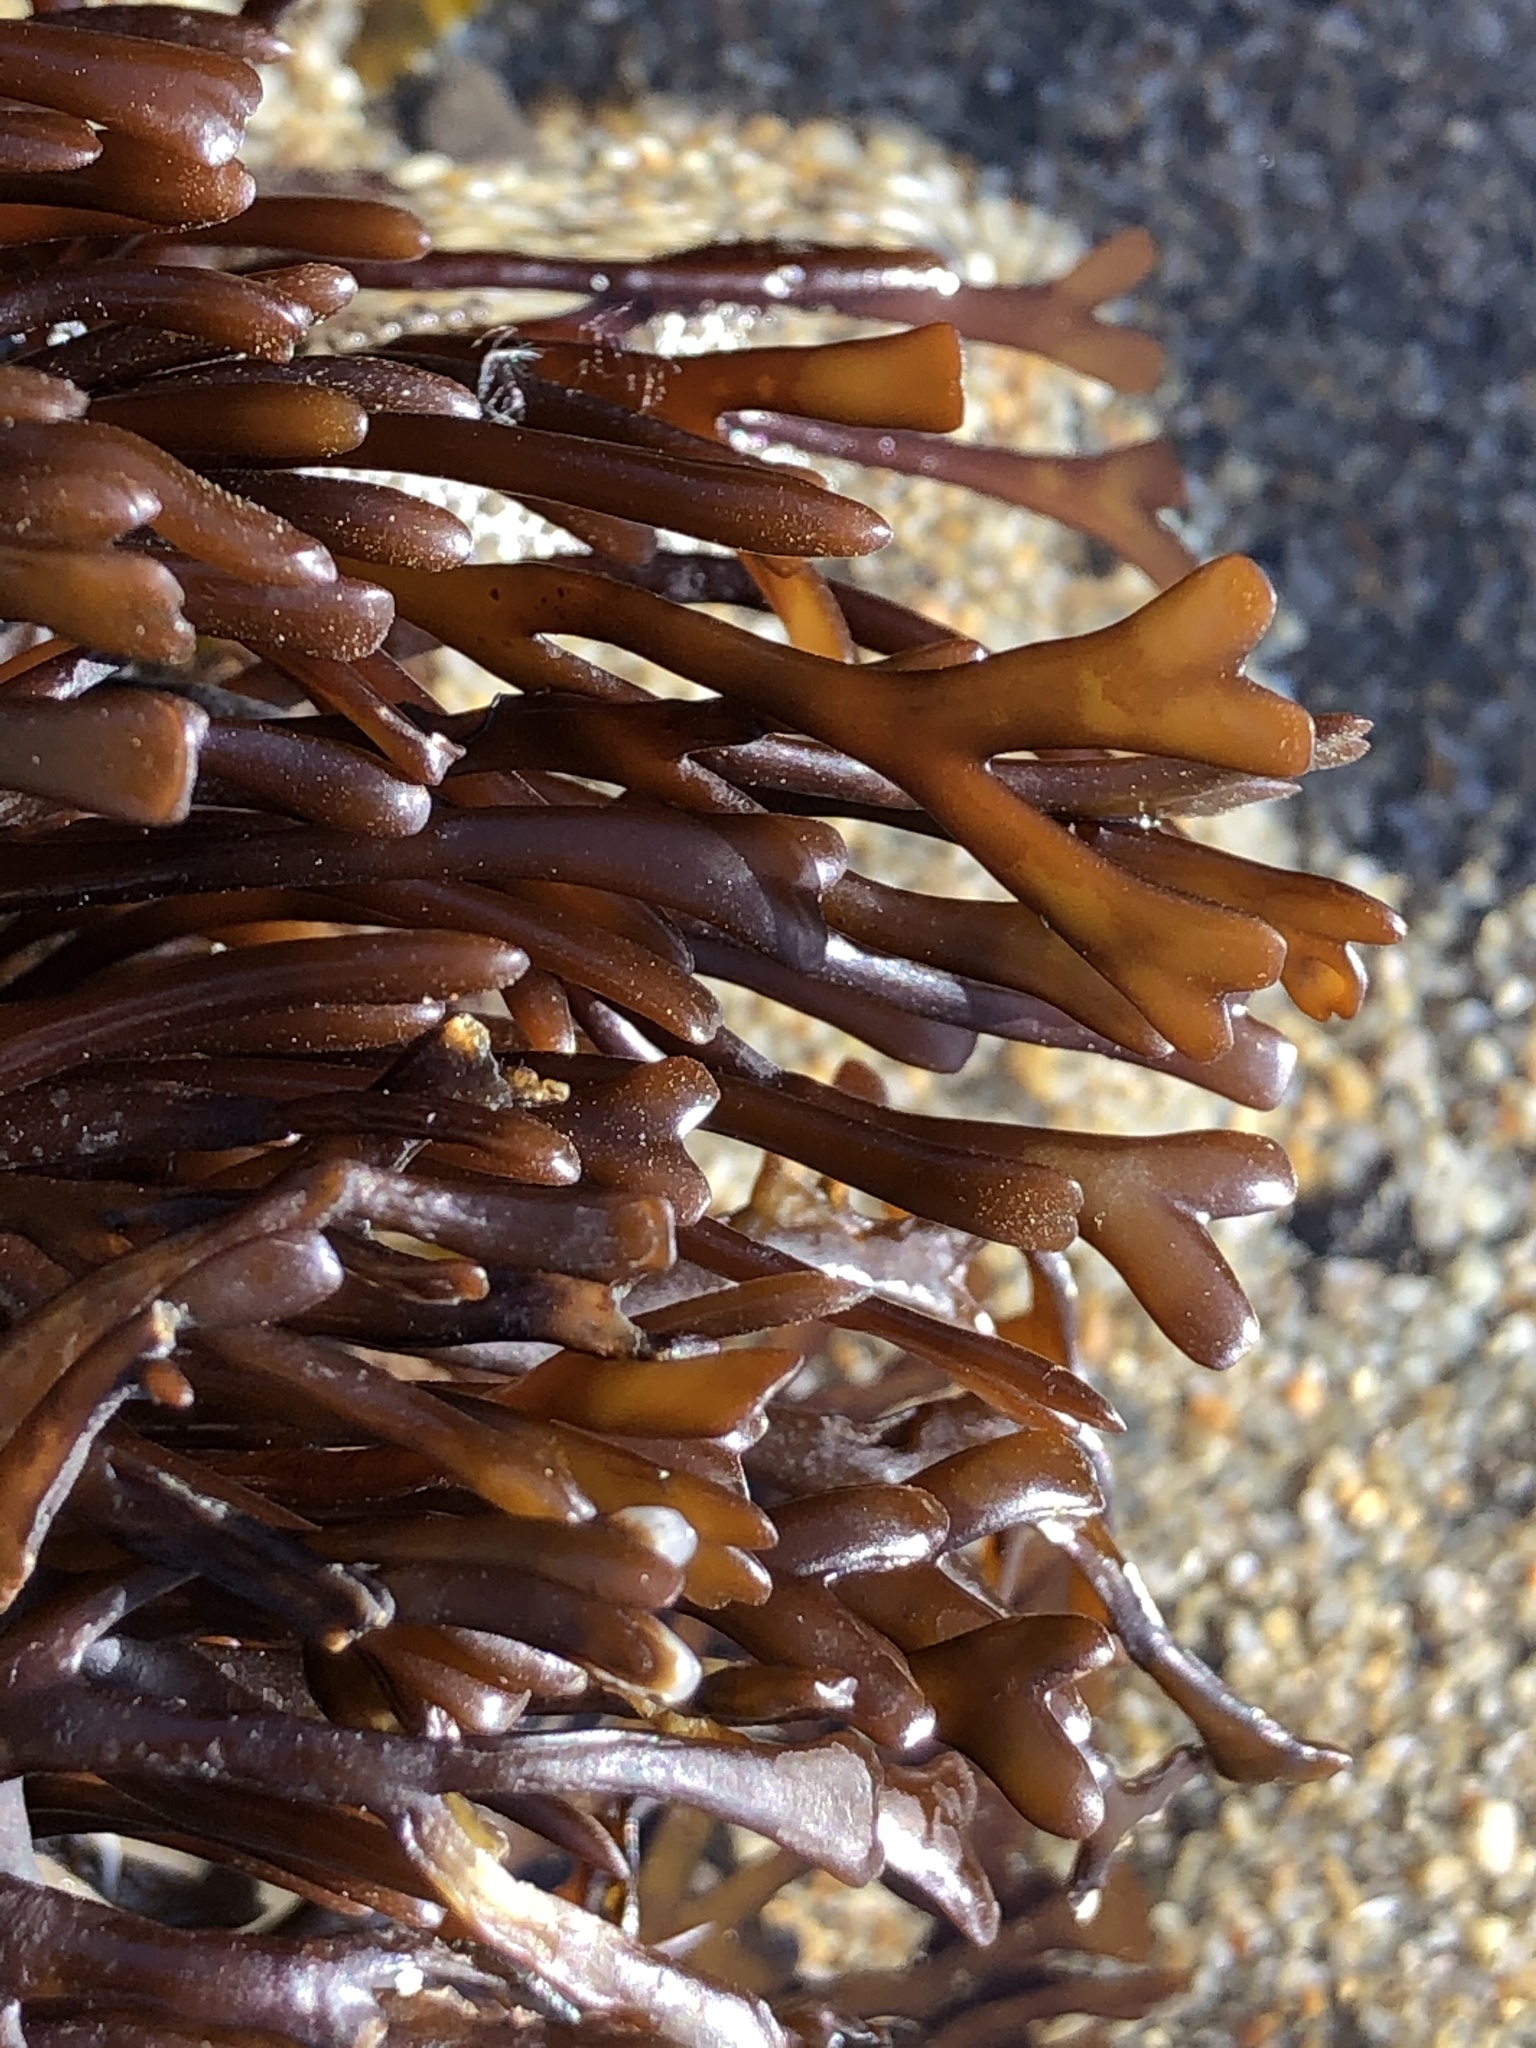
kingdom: Plantae
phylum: Rhodophyta
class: Florideophyceae
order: Gigartinales
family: Phyllophoraceae
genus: Ahnfeltiopsis
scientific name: Ahnfeltiopsis linearis
